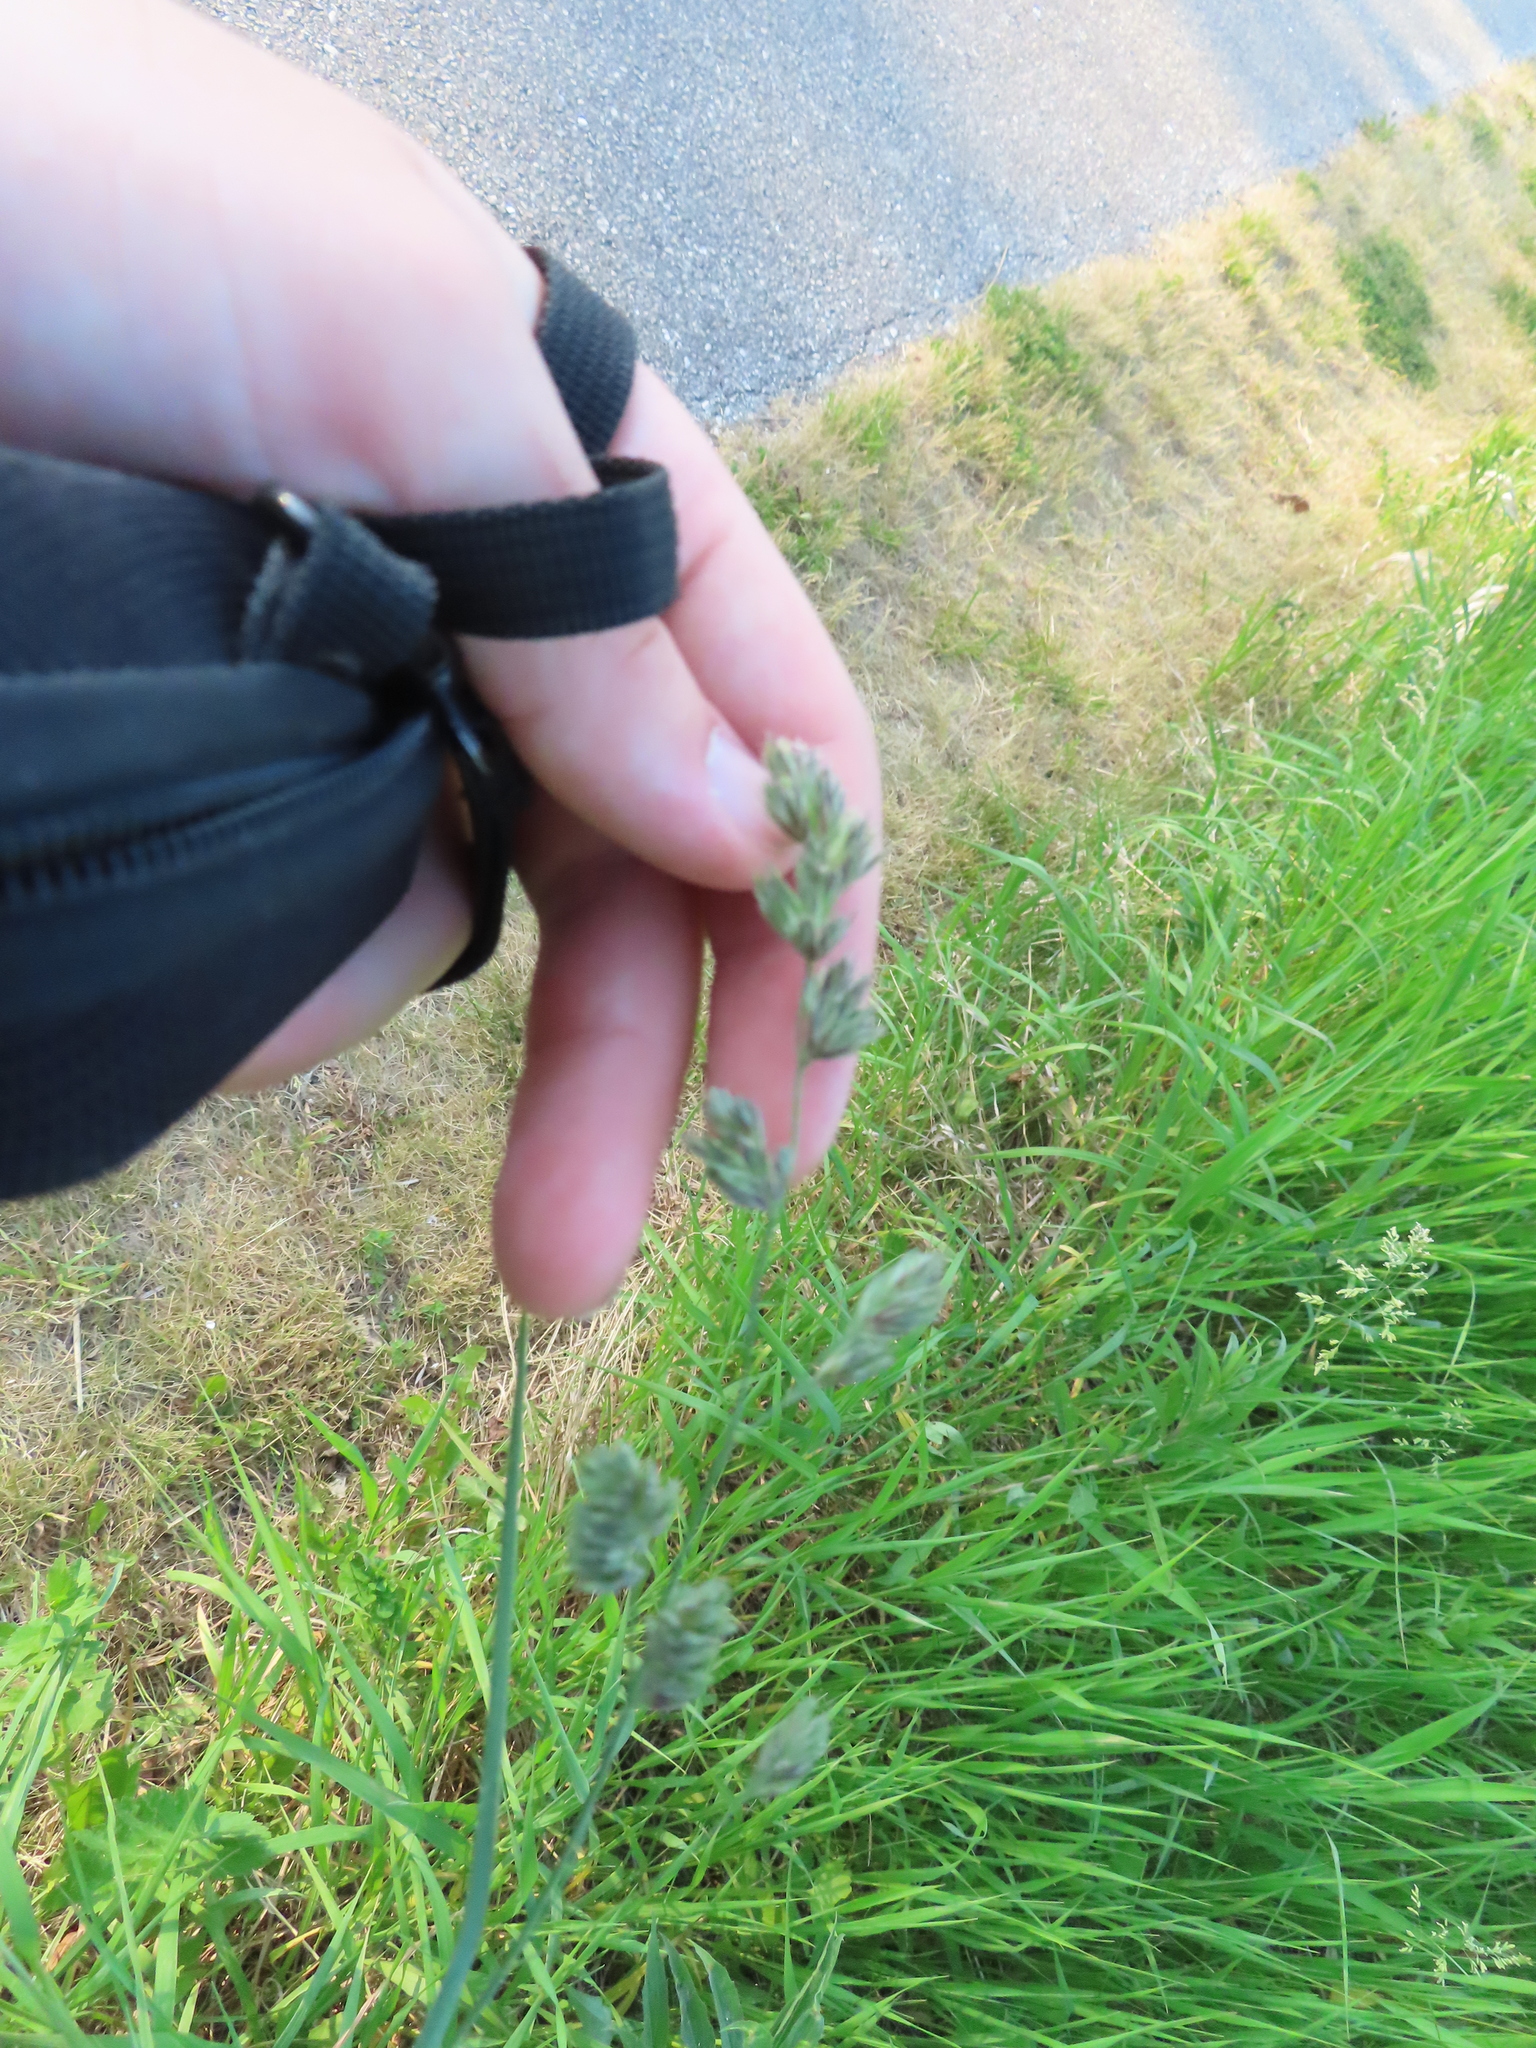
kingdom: Plantae
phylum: Tracheophyta
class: Liliopsida
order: Poales
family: Poaceae
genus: Dactylis
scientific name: Dactylis glomerata
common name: Orchardgrass
